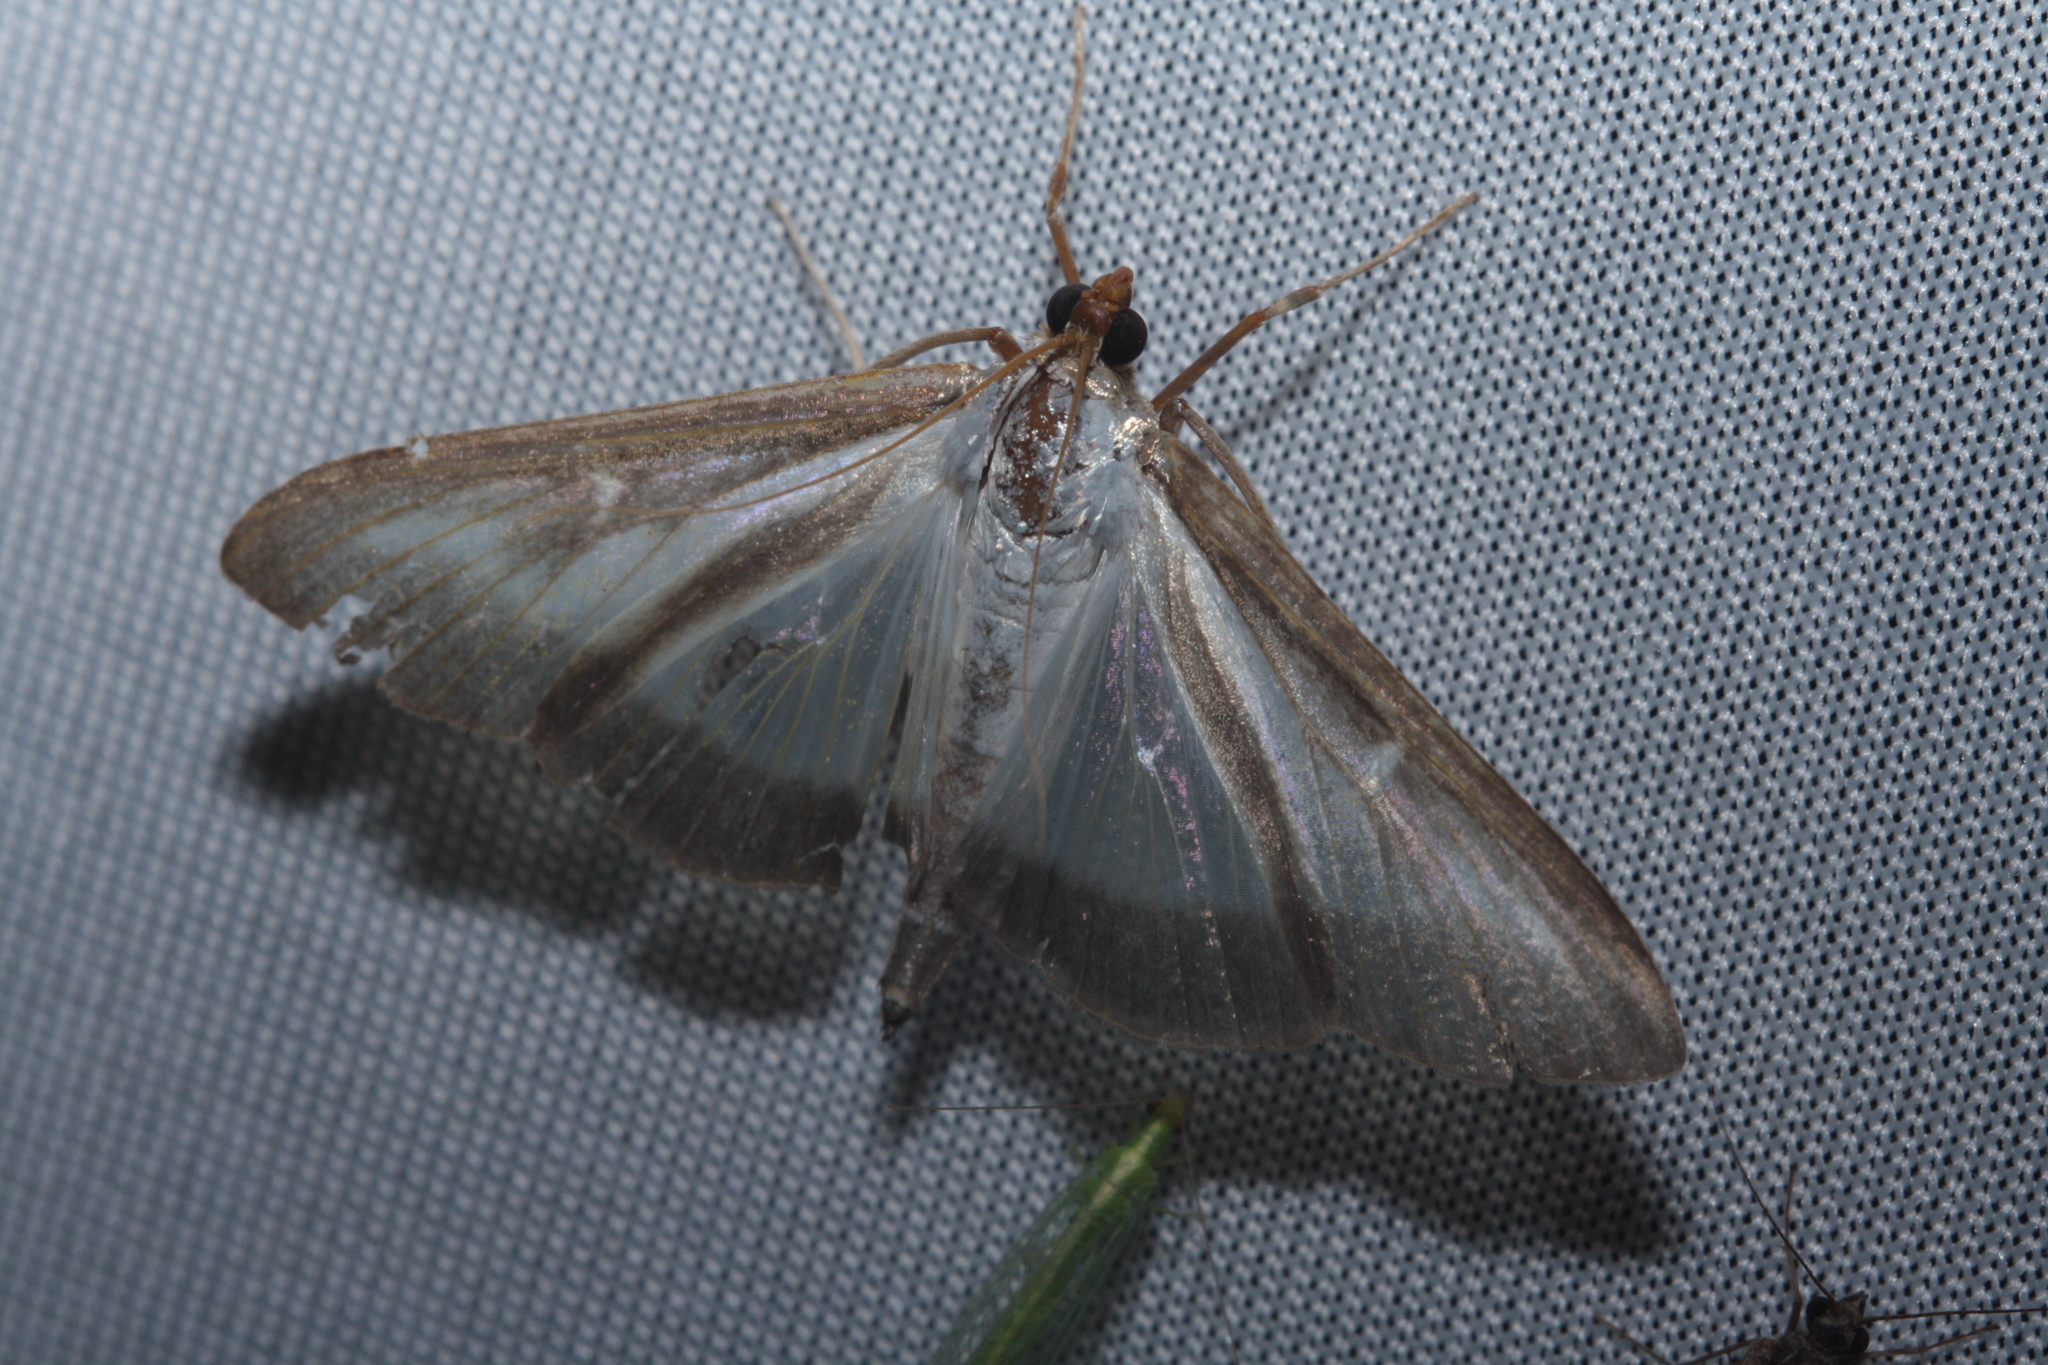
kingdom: Animalia
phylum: Arthropoda
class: Insecta
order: Lepidoptera
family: Crambidae
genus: Cydalima
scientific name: Cydalima perspectalis
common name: Box tree moth
